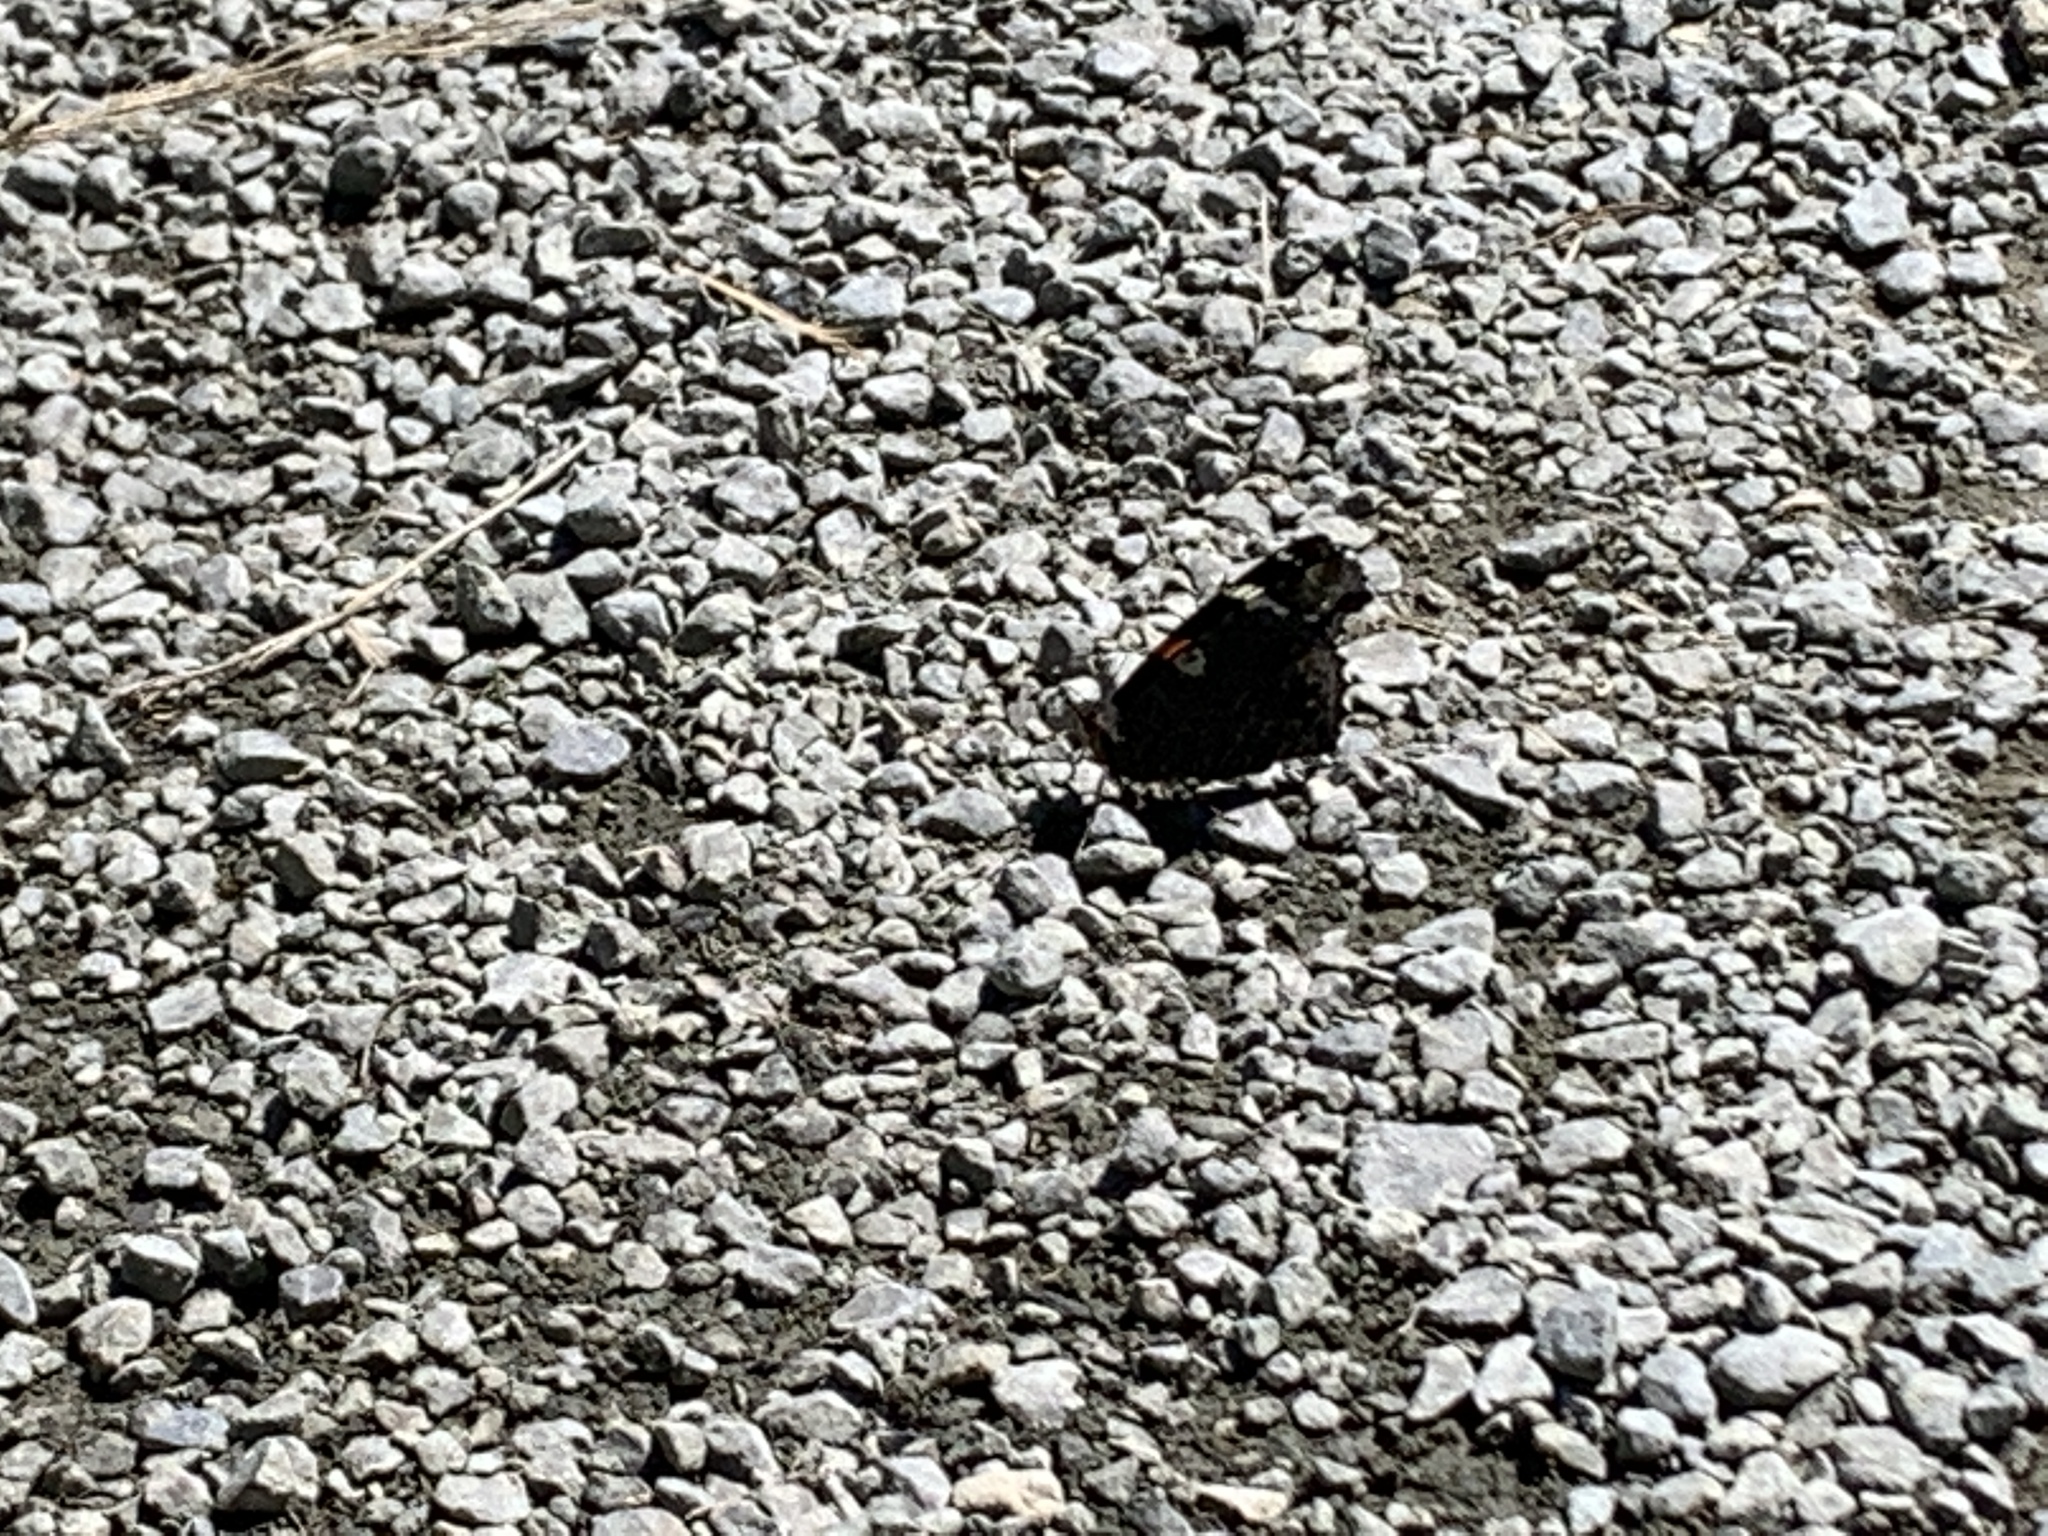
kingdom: Animalia
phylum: Arthropoda
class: Insecta
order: Lepidoptera
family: Nymphalidae
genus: Vanessa
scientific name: Vanessa atalanta
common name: Red admiral
